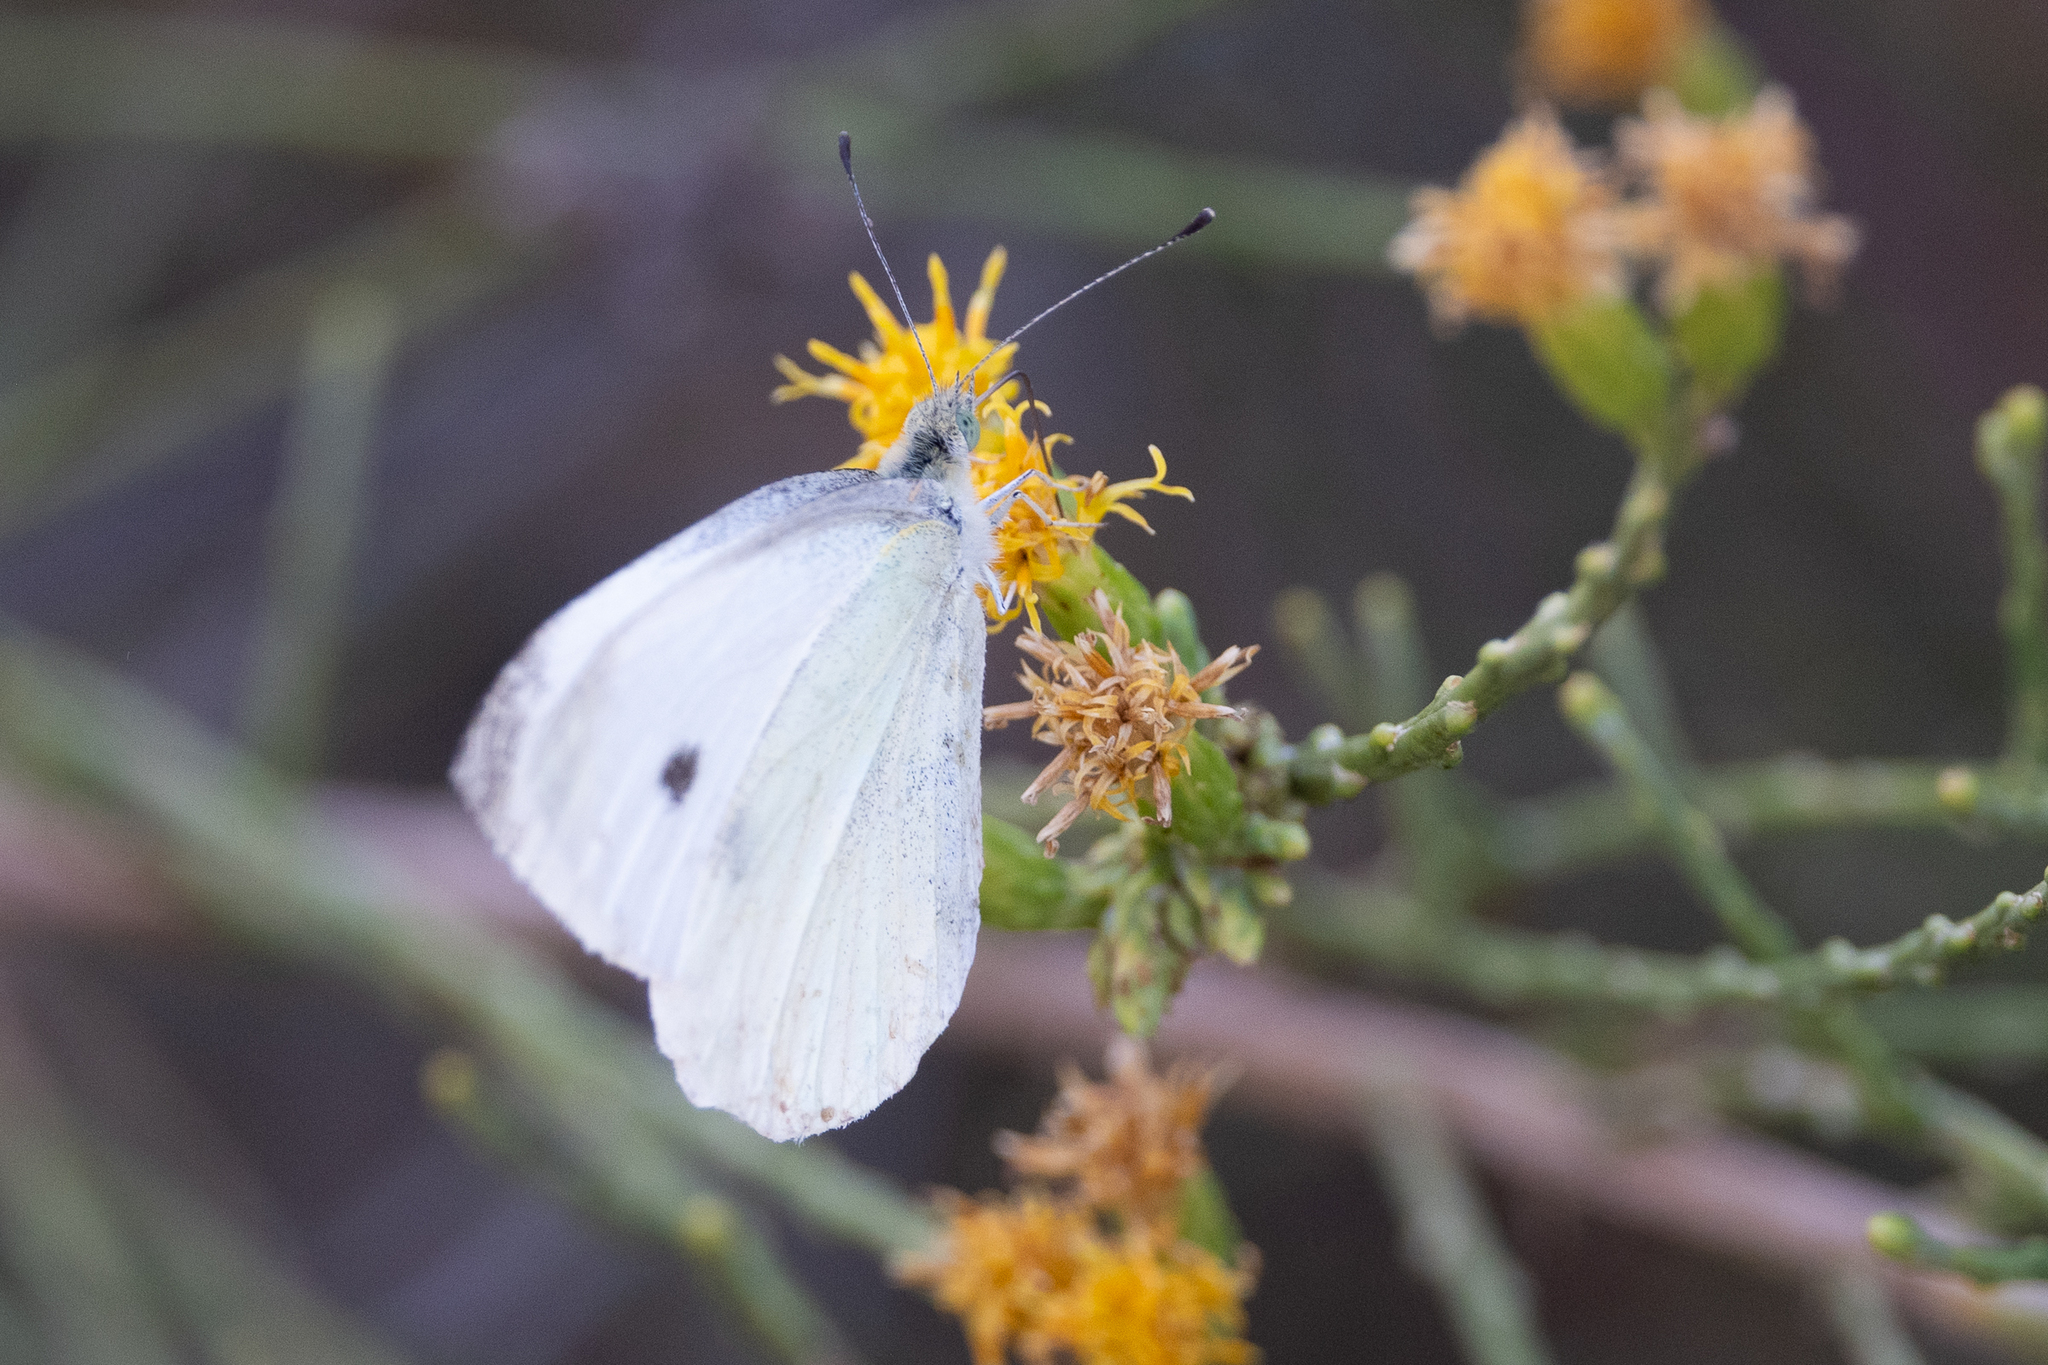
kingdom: Animalia
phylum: Arthropoda
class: Insecta
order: Lepidoptera
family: Pieridae
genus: Pieris
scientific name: Pieris rapae
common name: Small white
